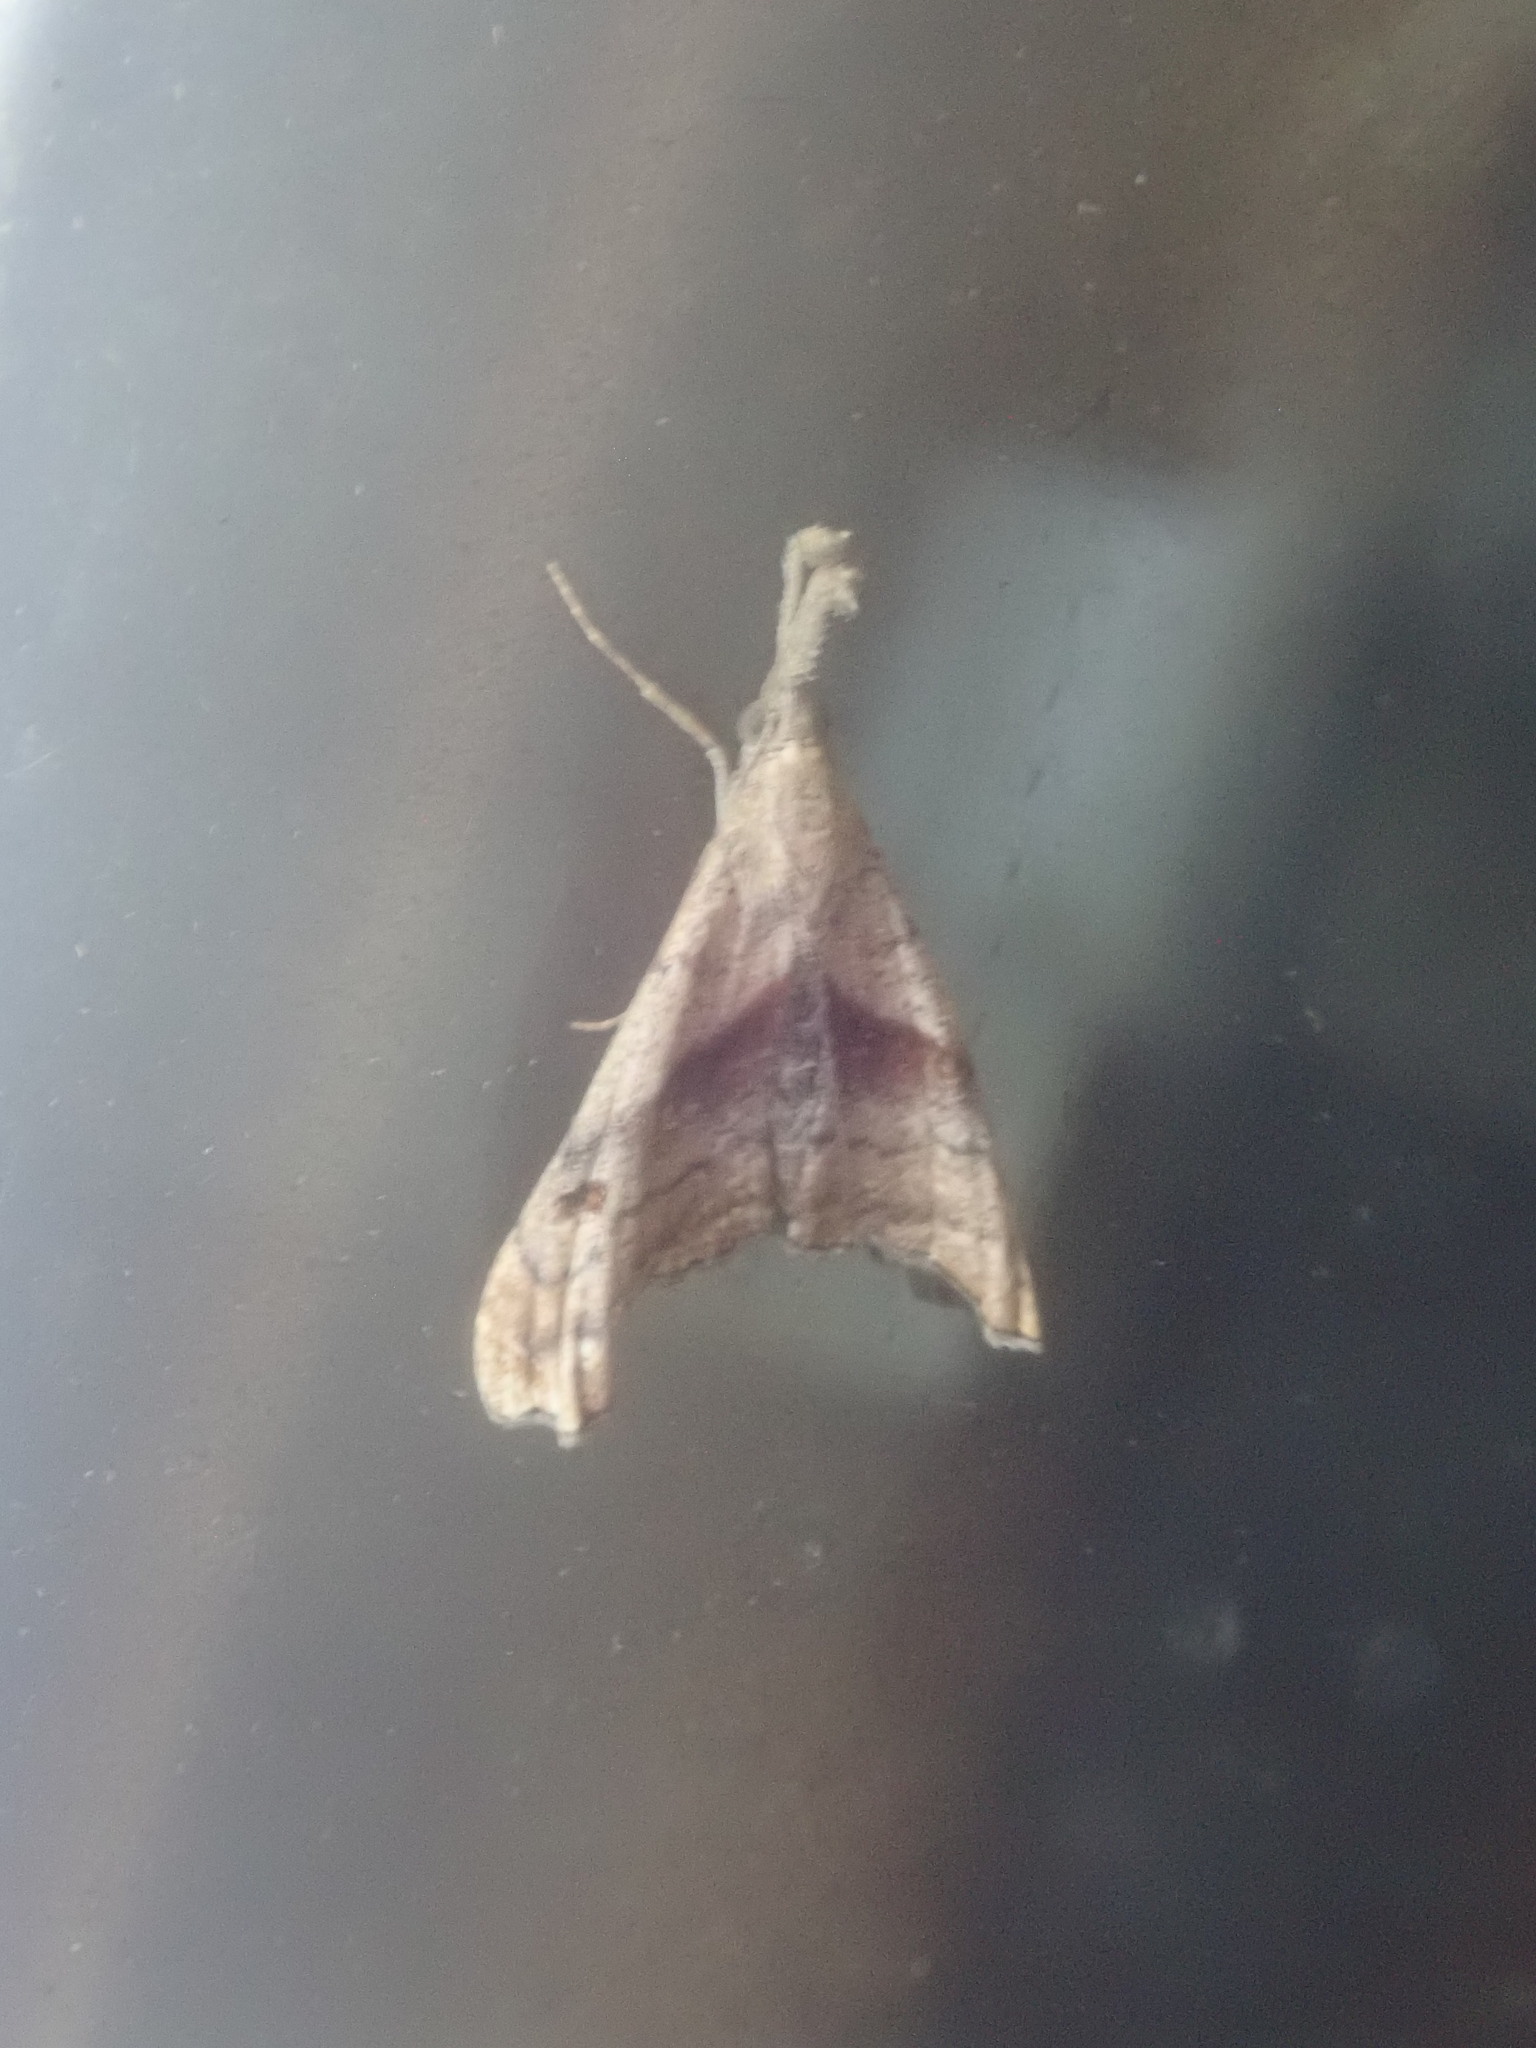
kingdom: Animalia
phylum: Arthropoda
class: Insecta
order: Lepidoptera
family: Erebidae
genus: Palthis
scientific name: Palthis angulalis
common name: Dark-spotted palthis moth
